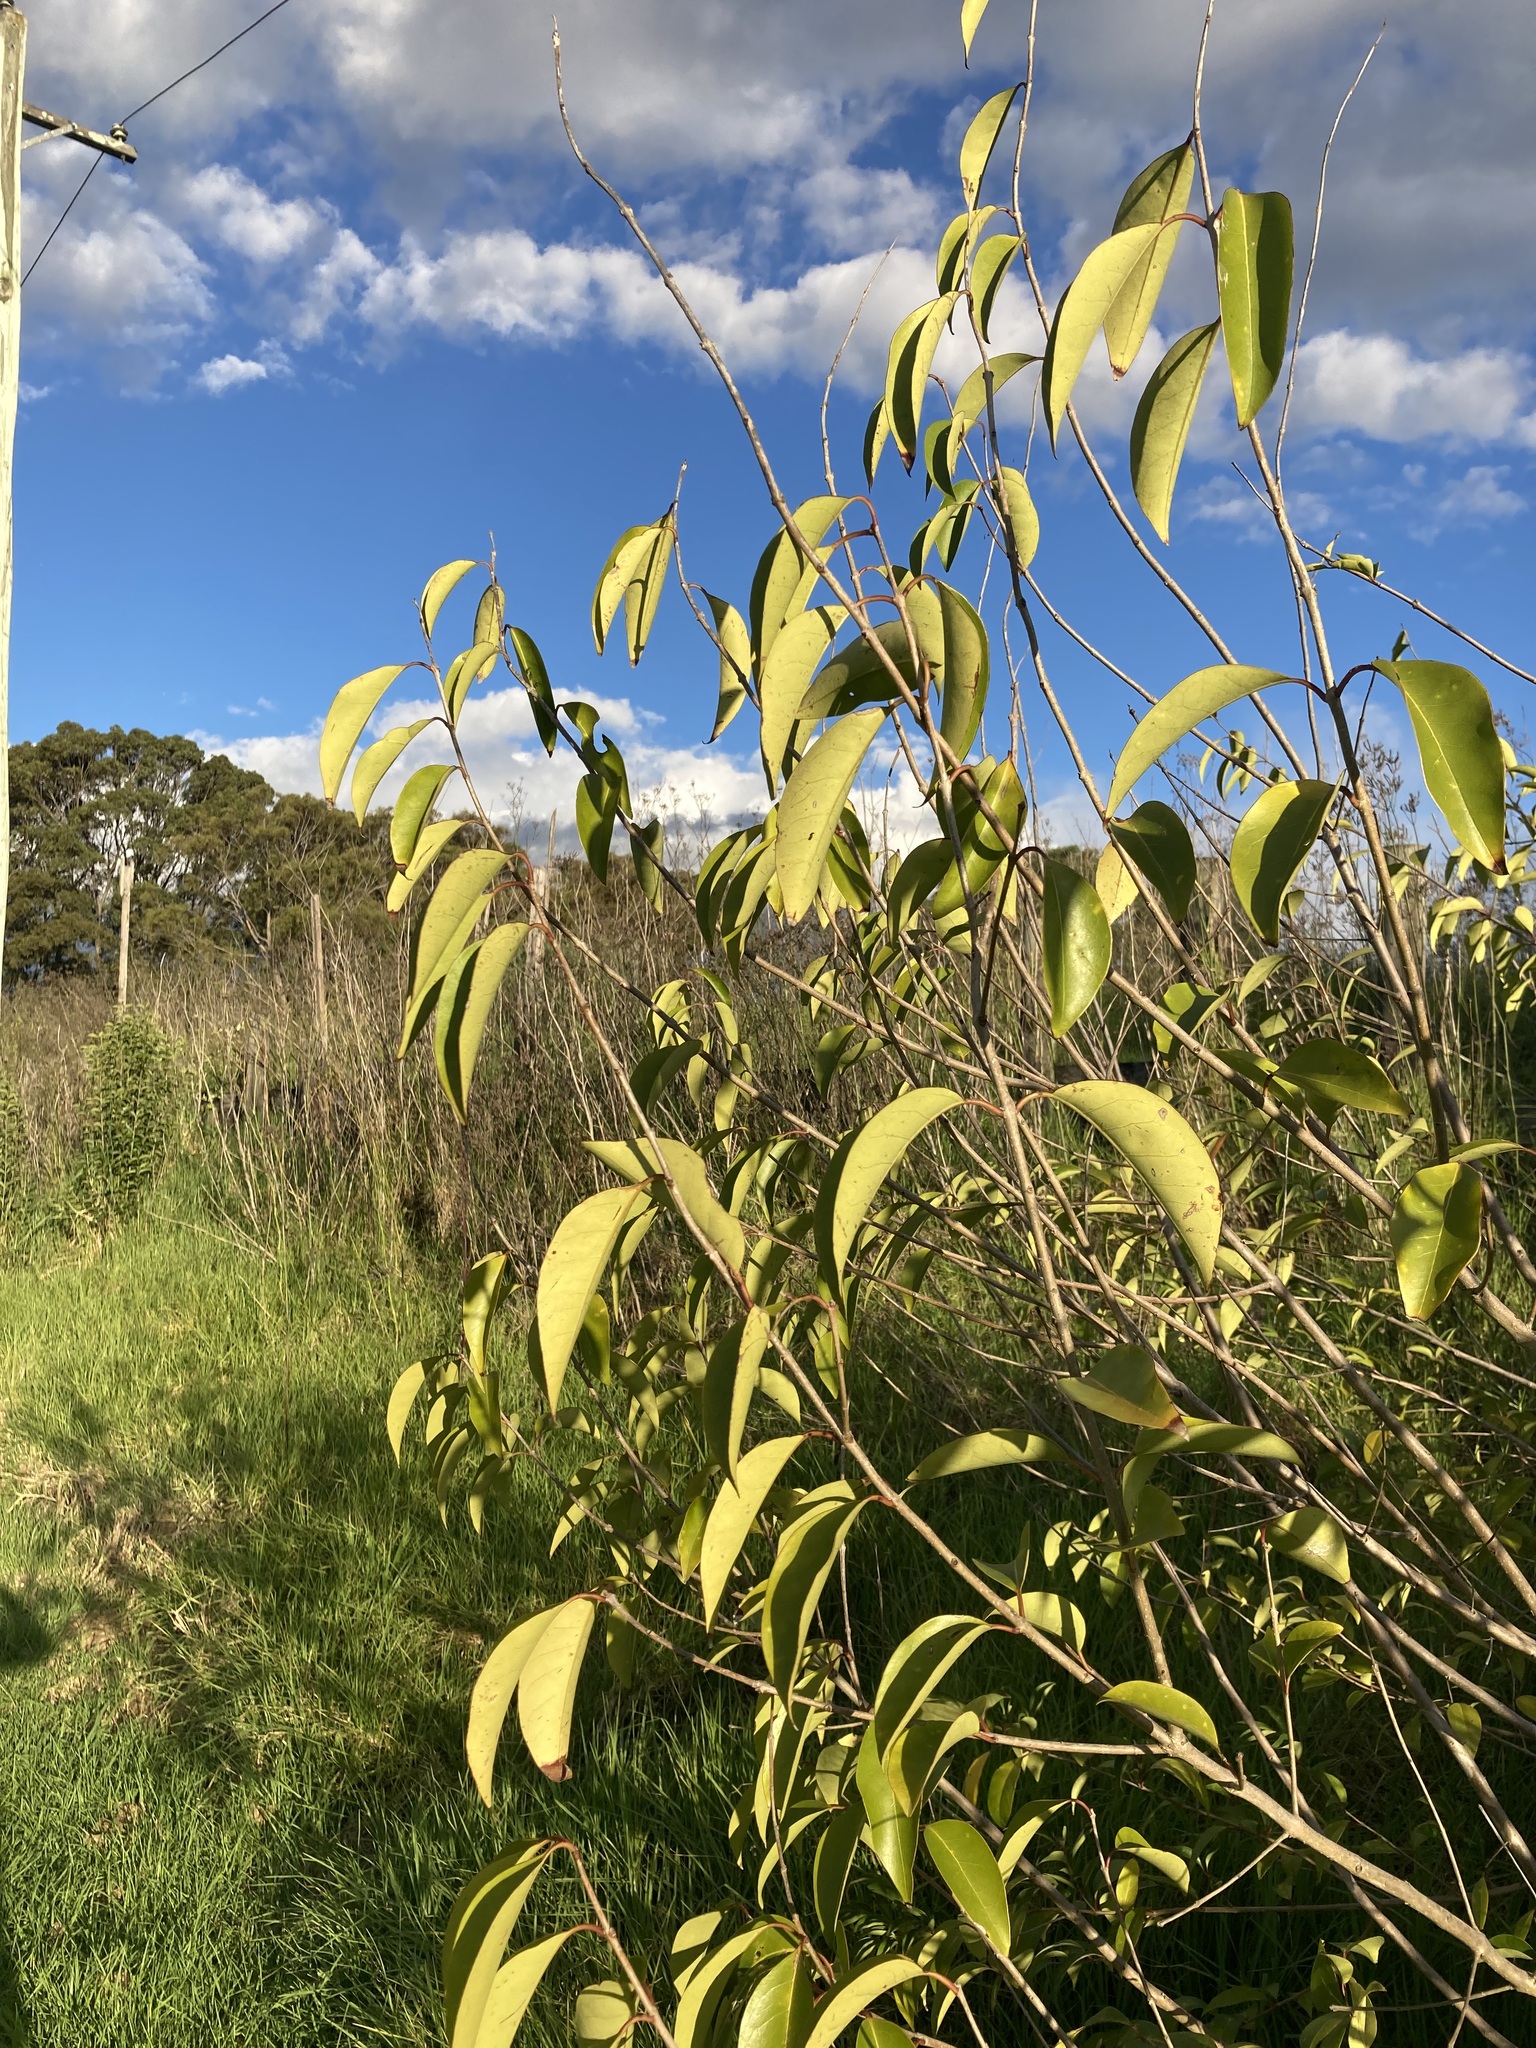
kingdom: Plantae
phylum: Tracheophyta
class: Magnoliopsida
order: Lamiales
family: Oleaceae
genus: Ligustrum
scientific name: Ligustrum lucidum
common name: Glossy privet
